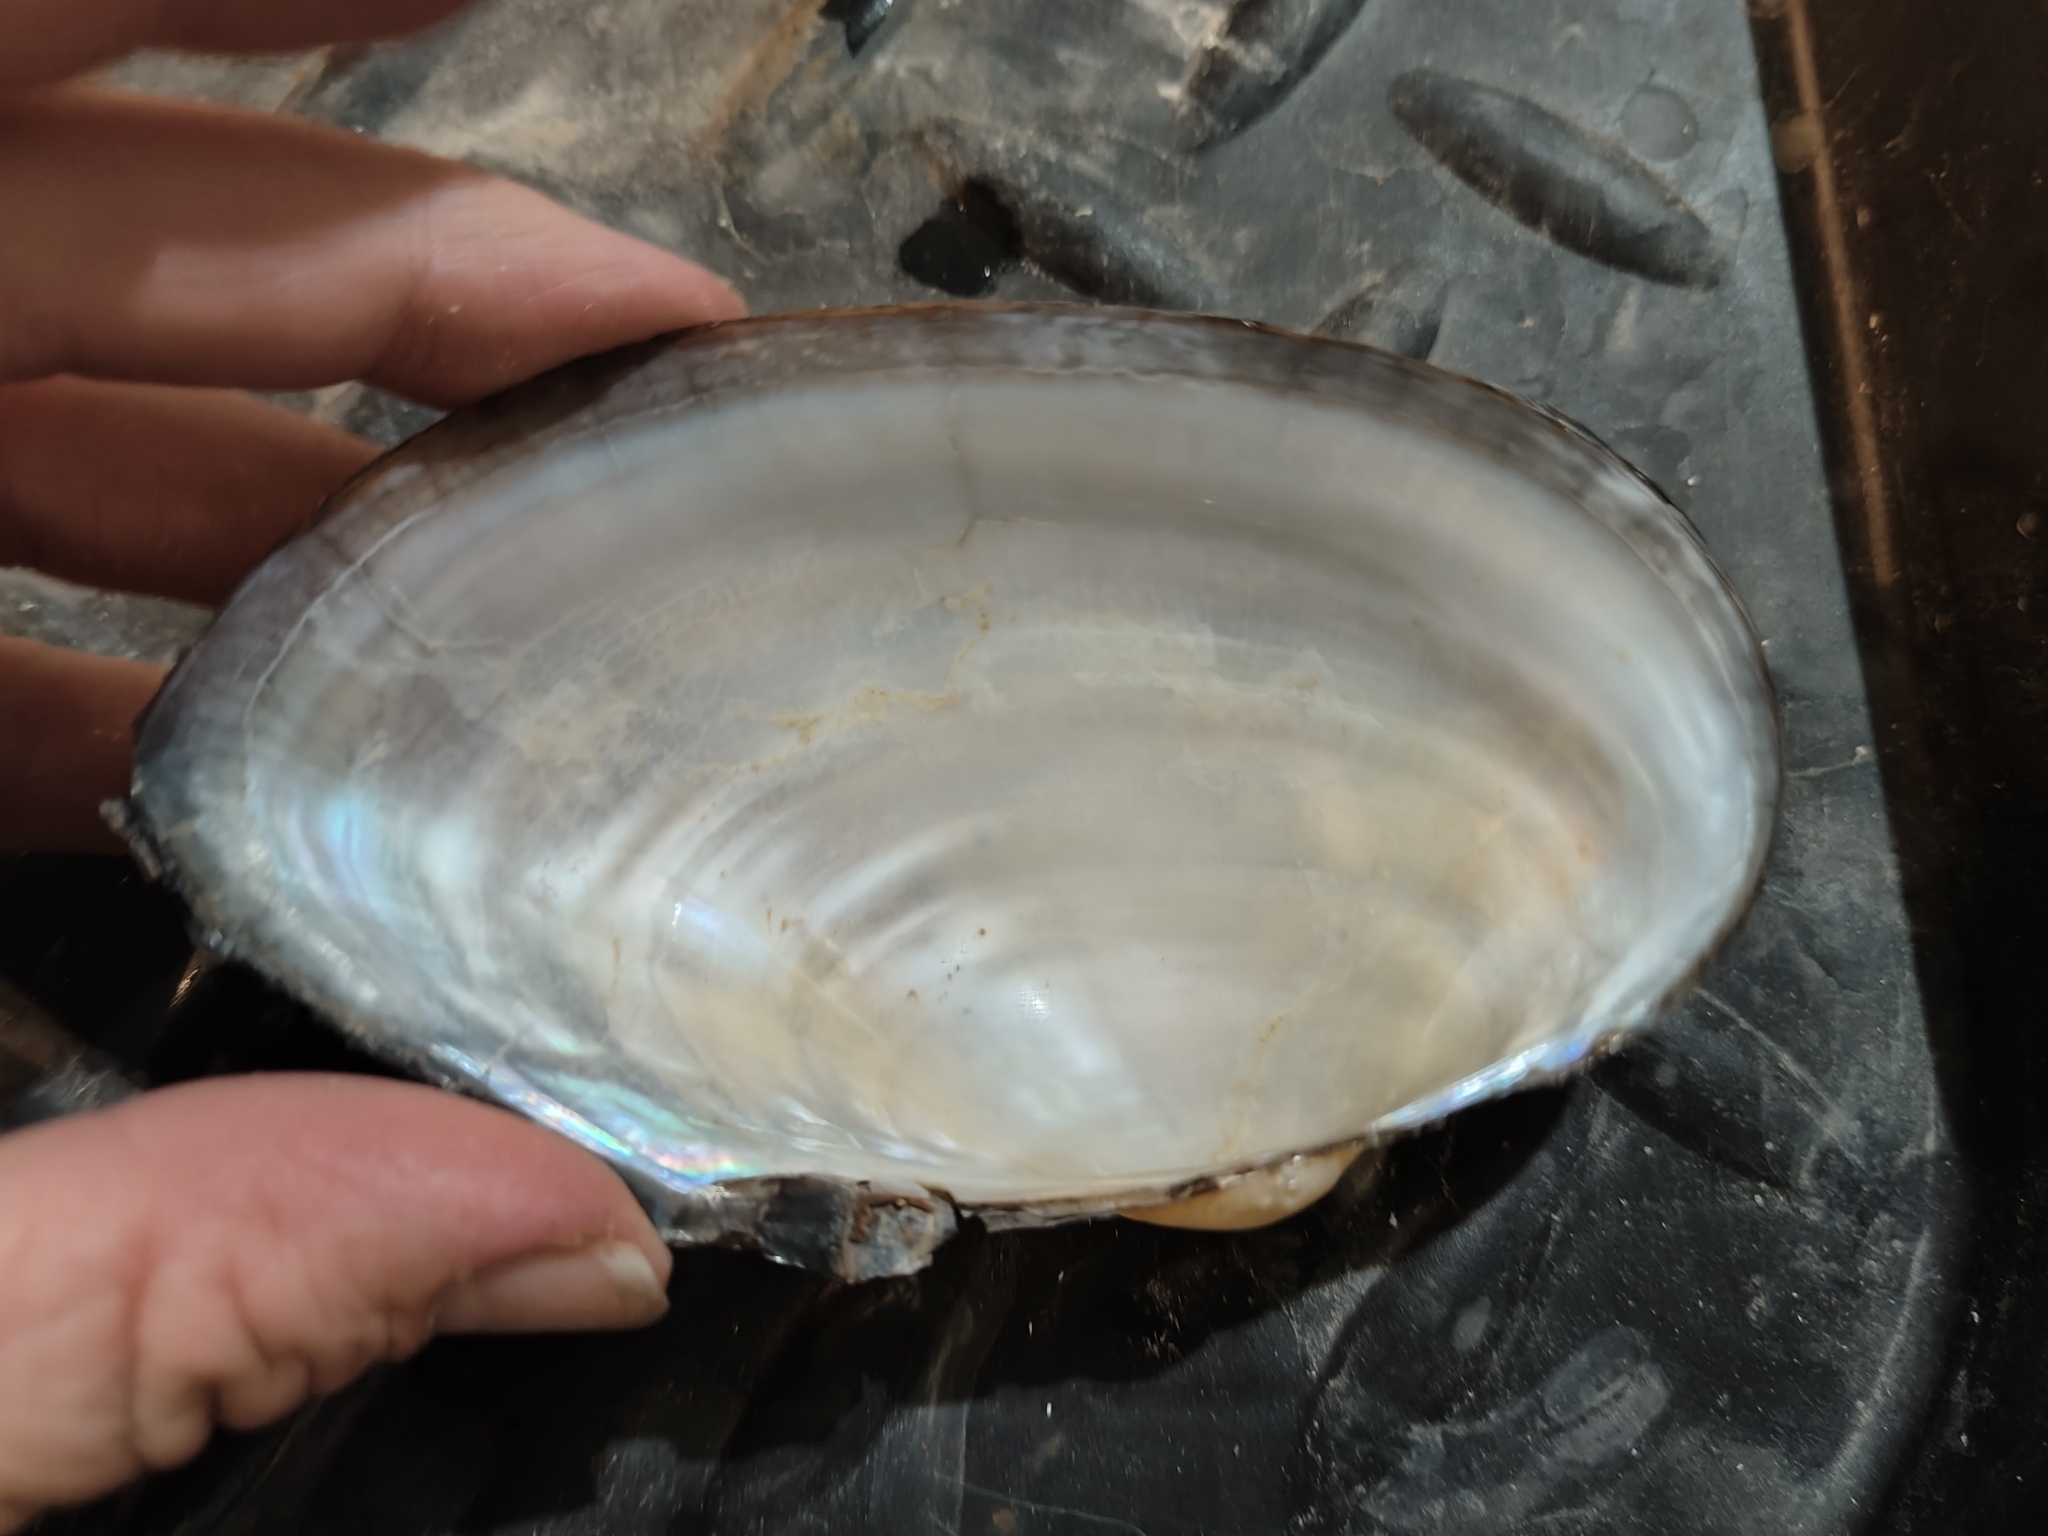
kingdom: Animalia
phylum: Mollusca
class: Bivalvia
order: Unionida
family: Unionidae
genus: Pyganodon
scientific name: Pyganodon grandis
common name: Giant floater
